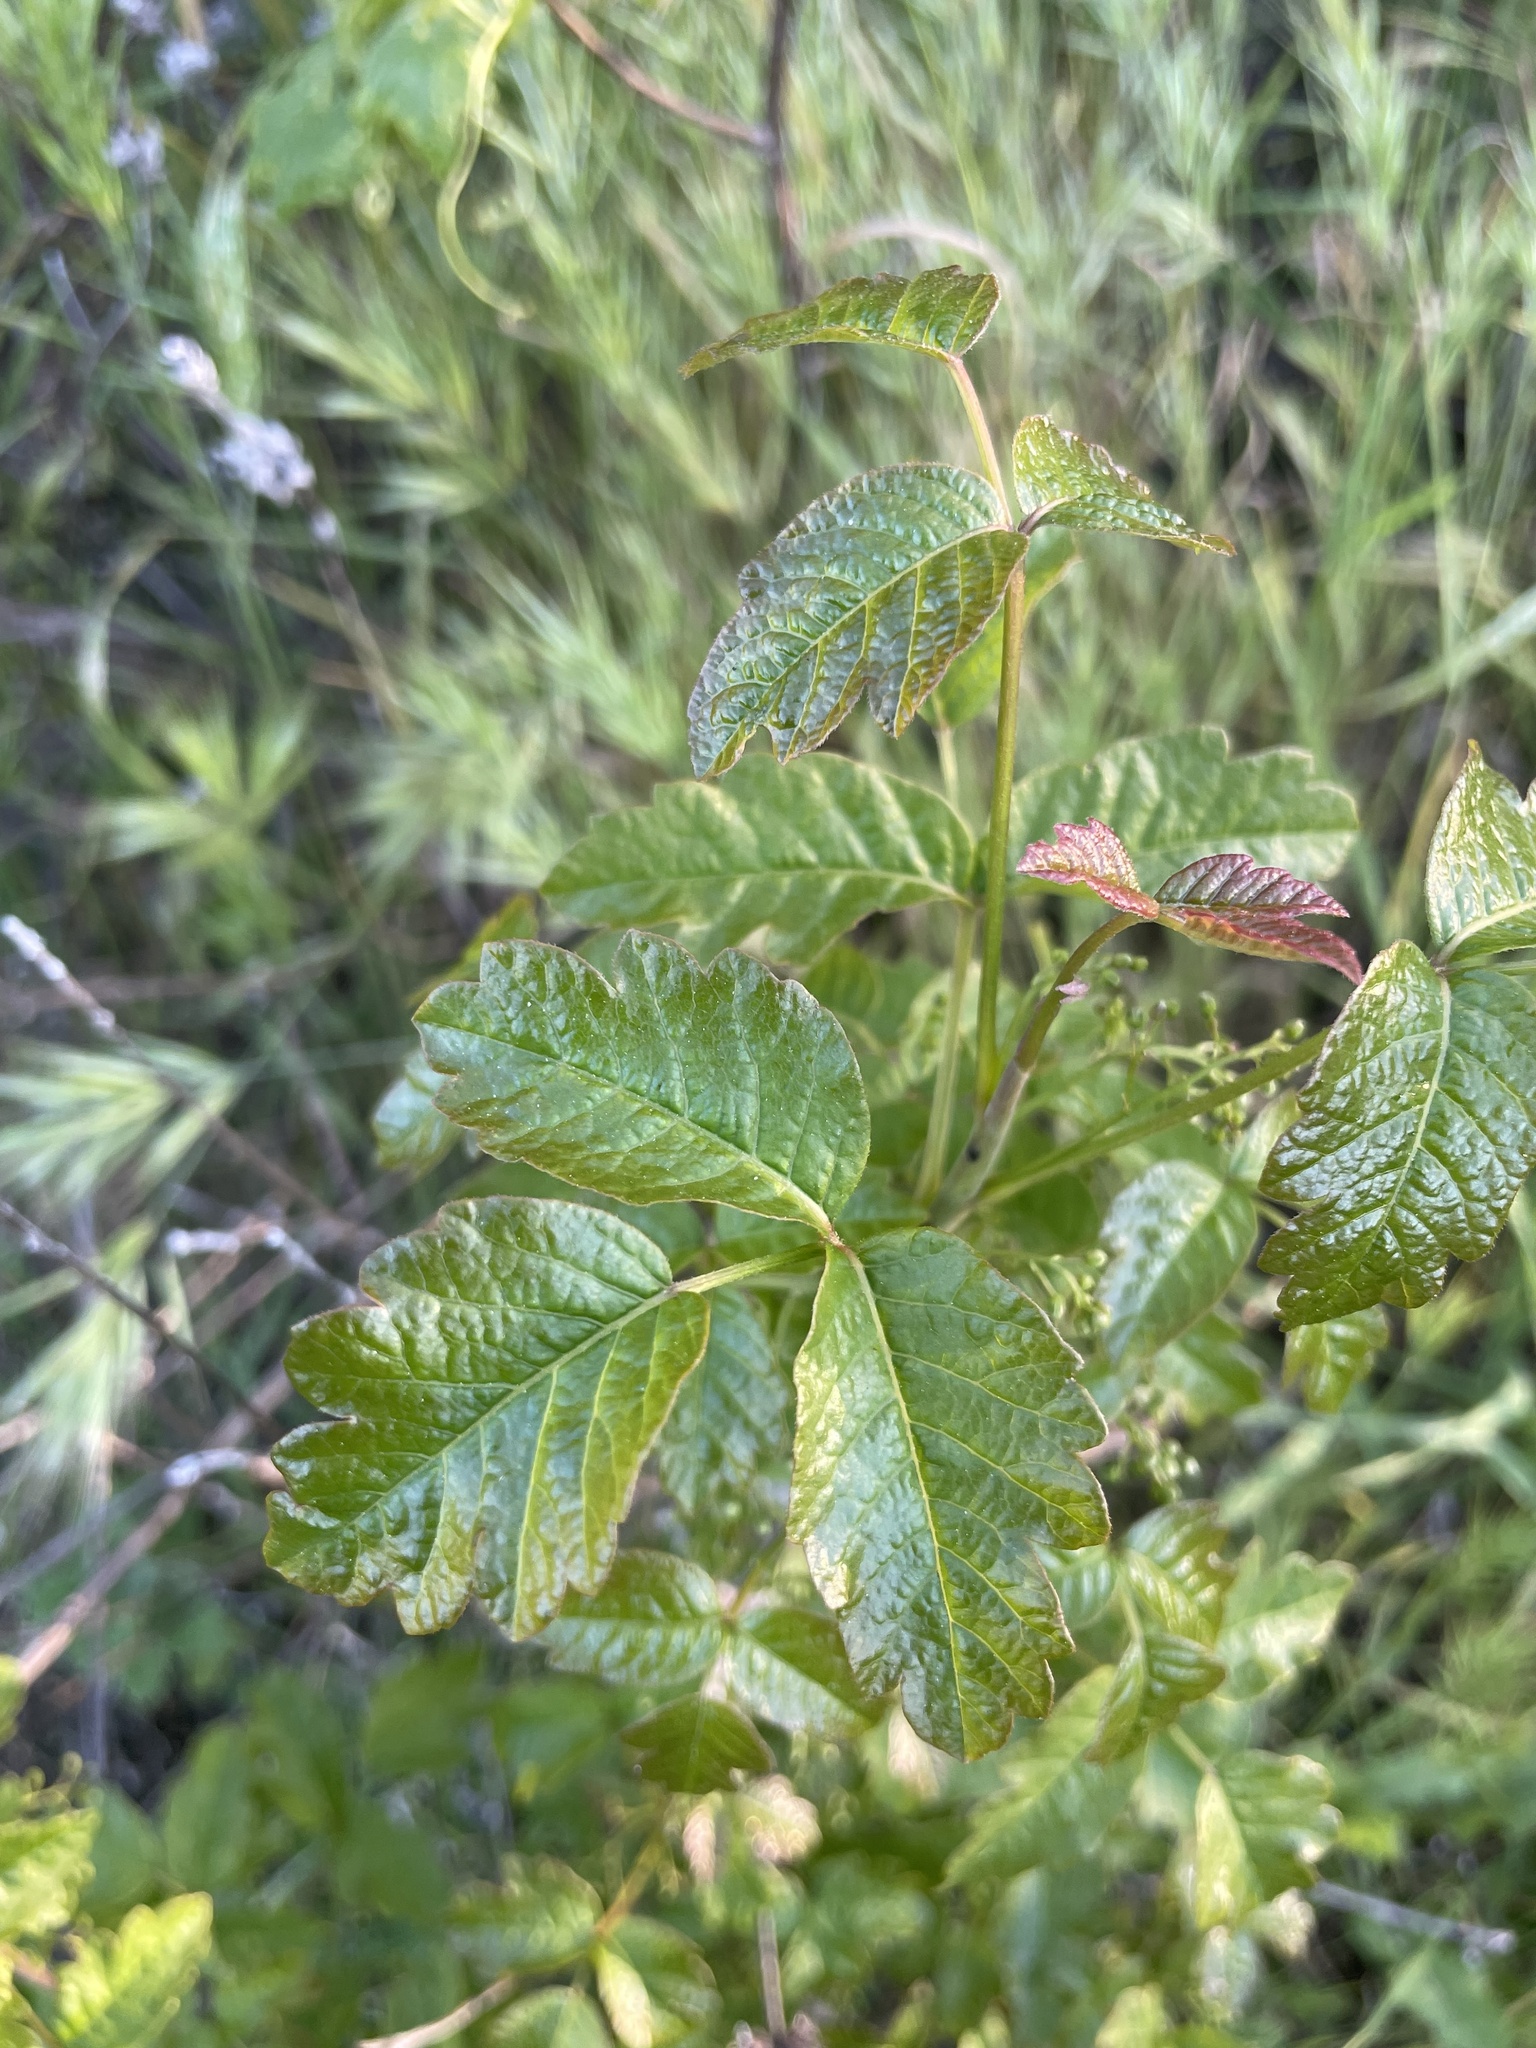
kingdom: Plantae
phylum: Tracheophyta
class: Magnoliopsida
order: Sapindales
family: Anacardiaceae
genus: Toxicodendron
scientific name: Toxicodendron diversilobum
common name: Pacific poison-oak
